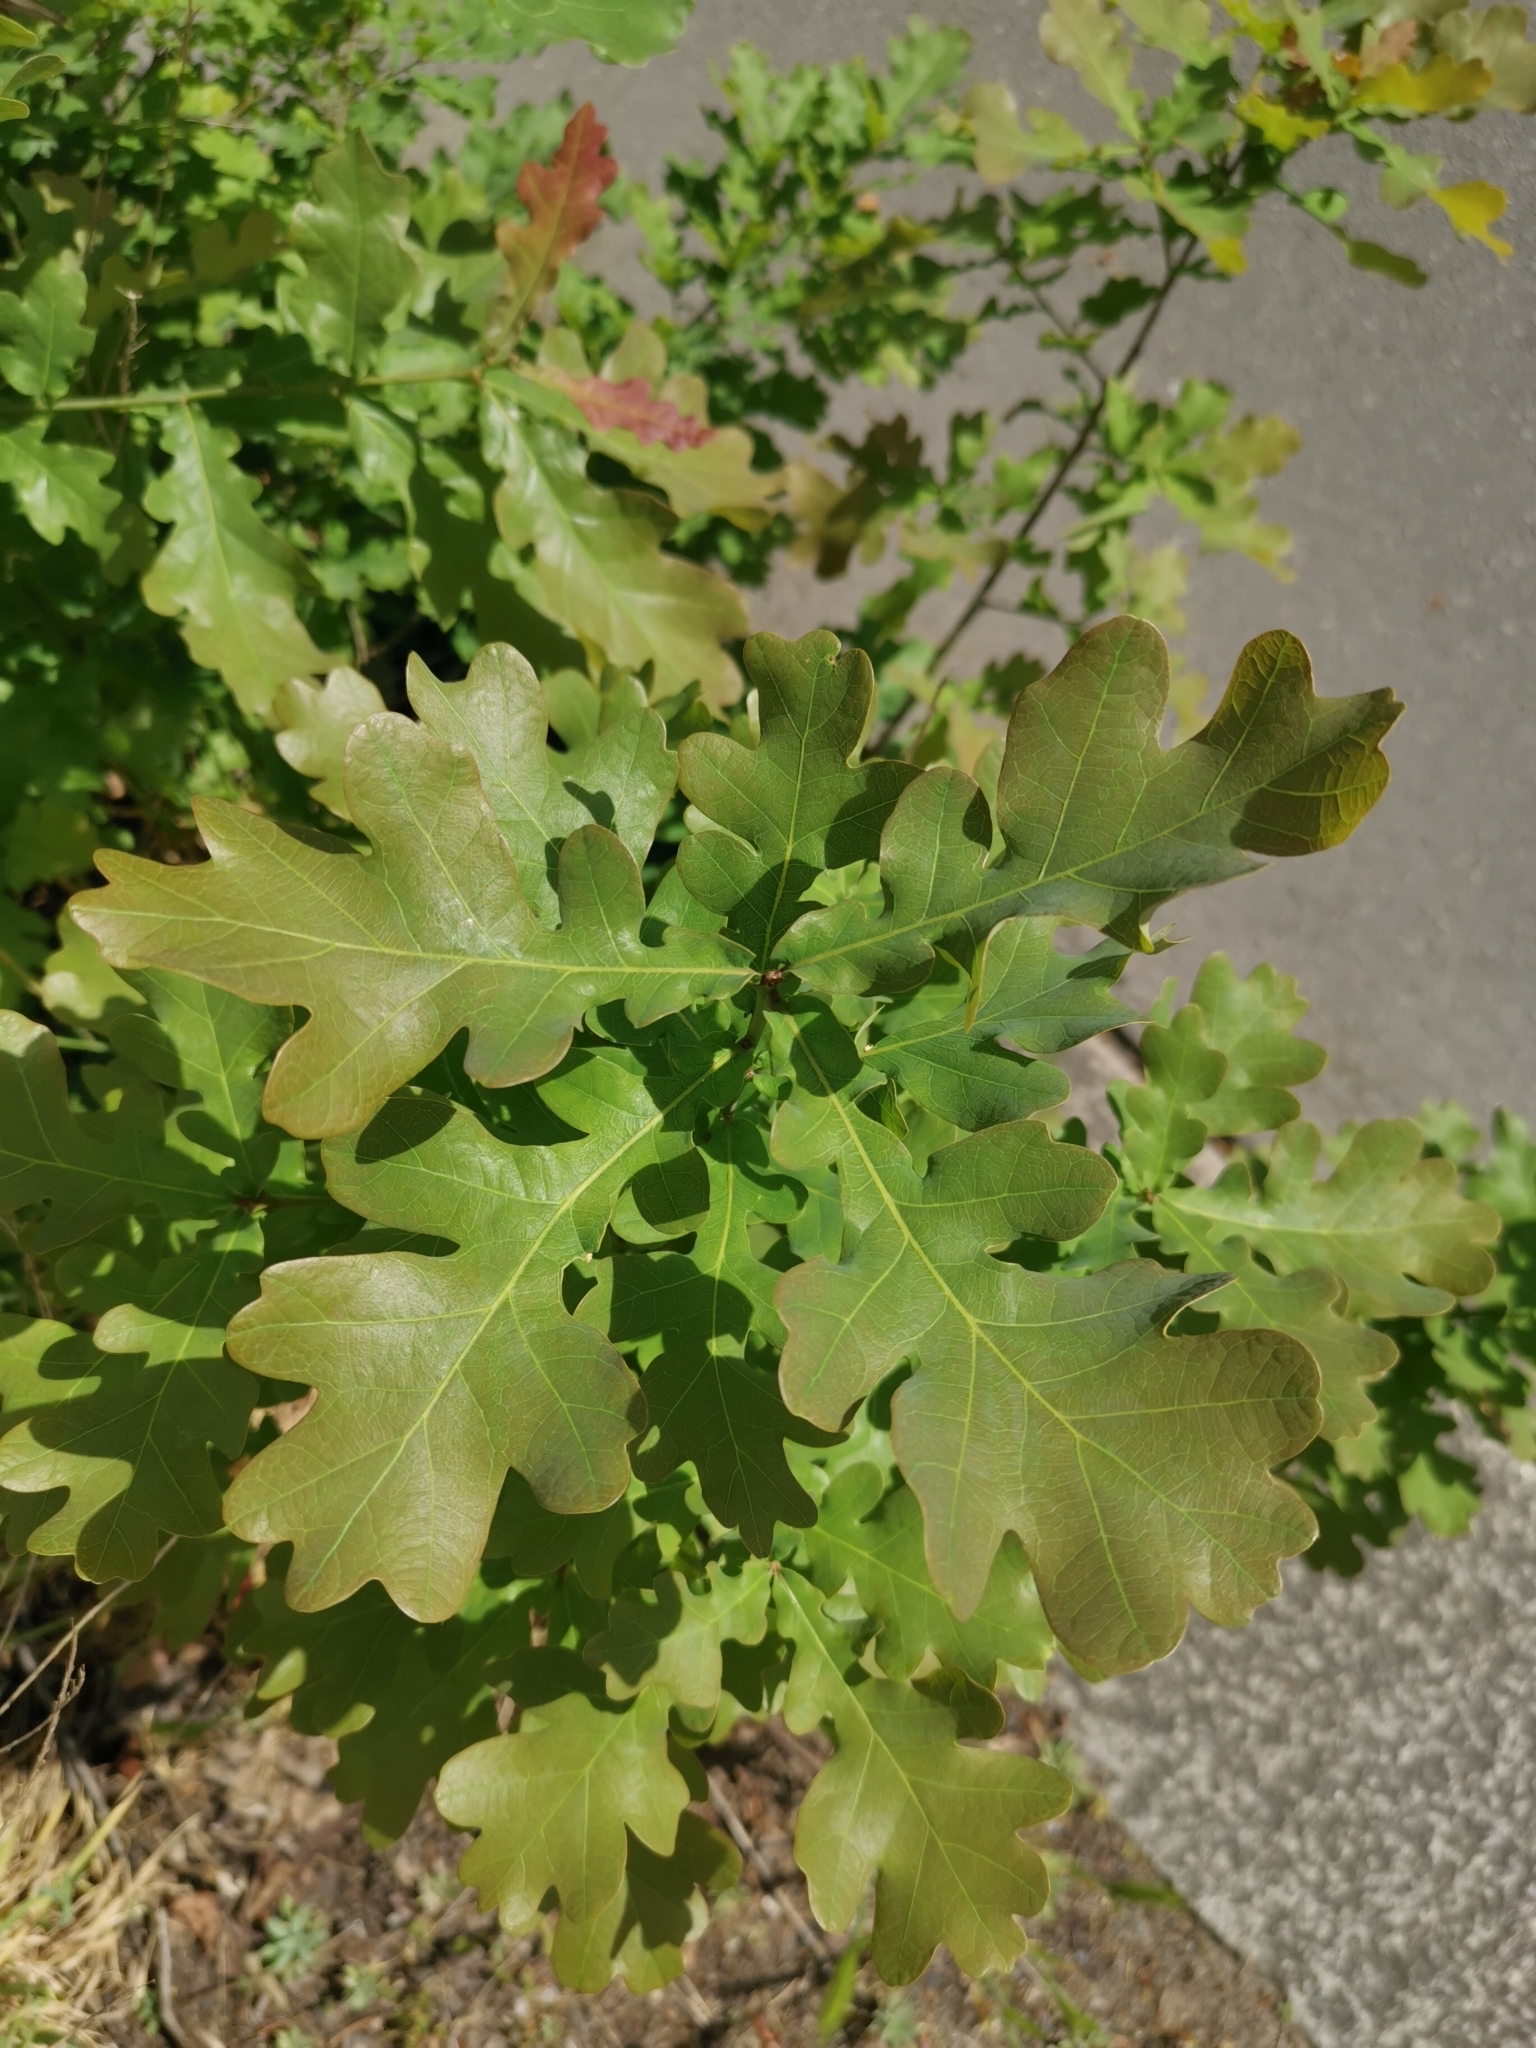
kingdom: Plantae
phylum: Tracheophyta
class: Magnoliopsida
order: Fagales
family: Fagaceae
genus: Quercus
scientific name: Quercus robur
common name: Pedunculate oak
